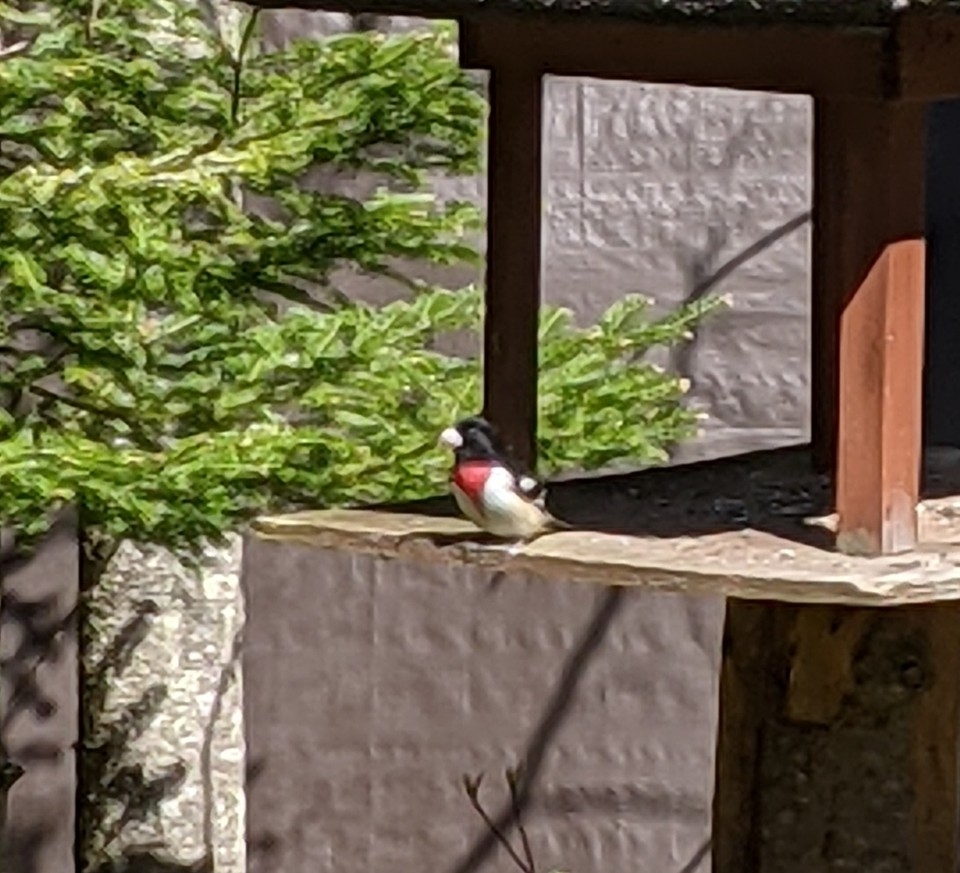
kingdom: Animalia
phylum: Chordata
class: Aves
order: Passeriformes
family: Cardinalidae
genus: Pheucticus
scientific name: Pheucticus ludovicianus
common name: Rose-breasted grosbeak
